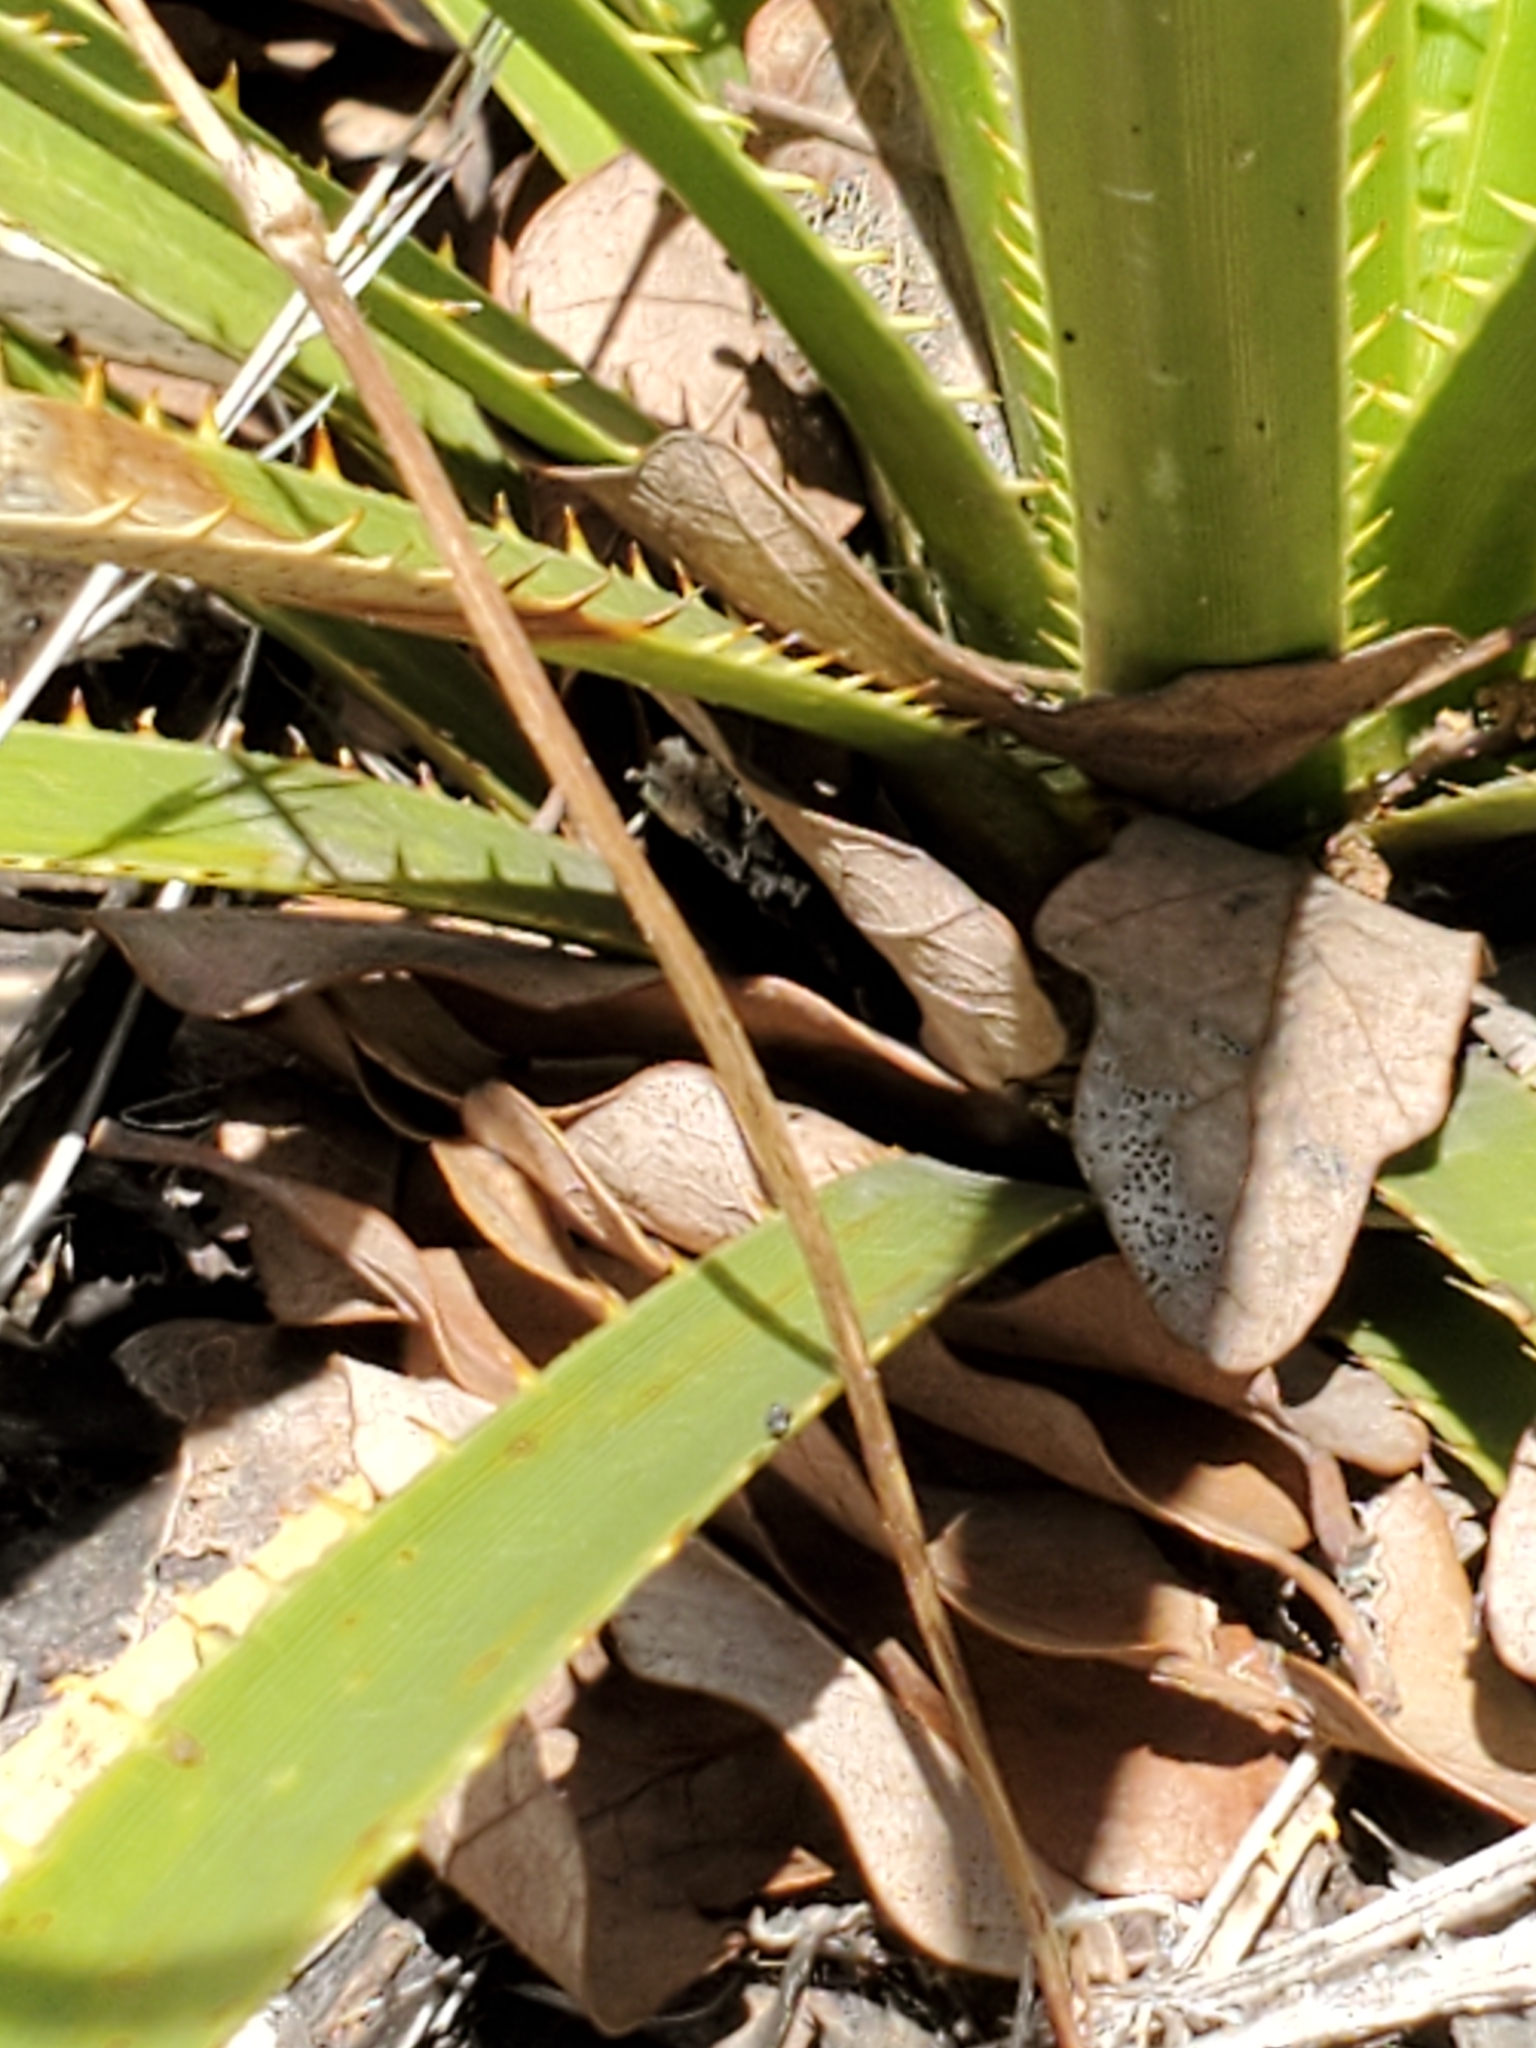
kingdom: Plantae
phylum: Tracheophyta
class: Magnoliopsida
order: Ranunculales
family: Ranunculaceae
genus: Anemone
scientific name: Anemone edwardsiana
